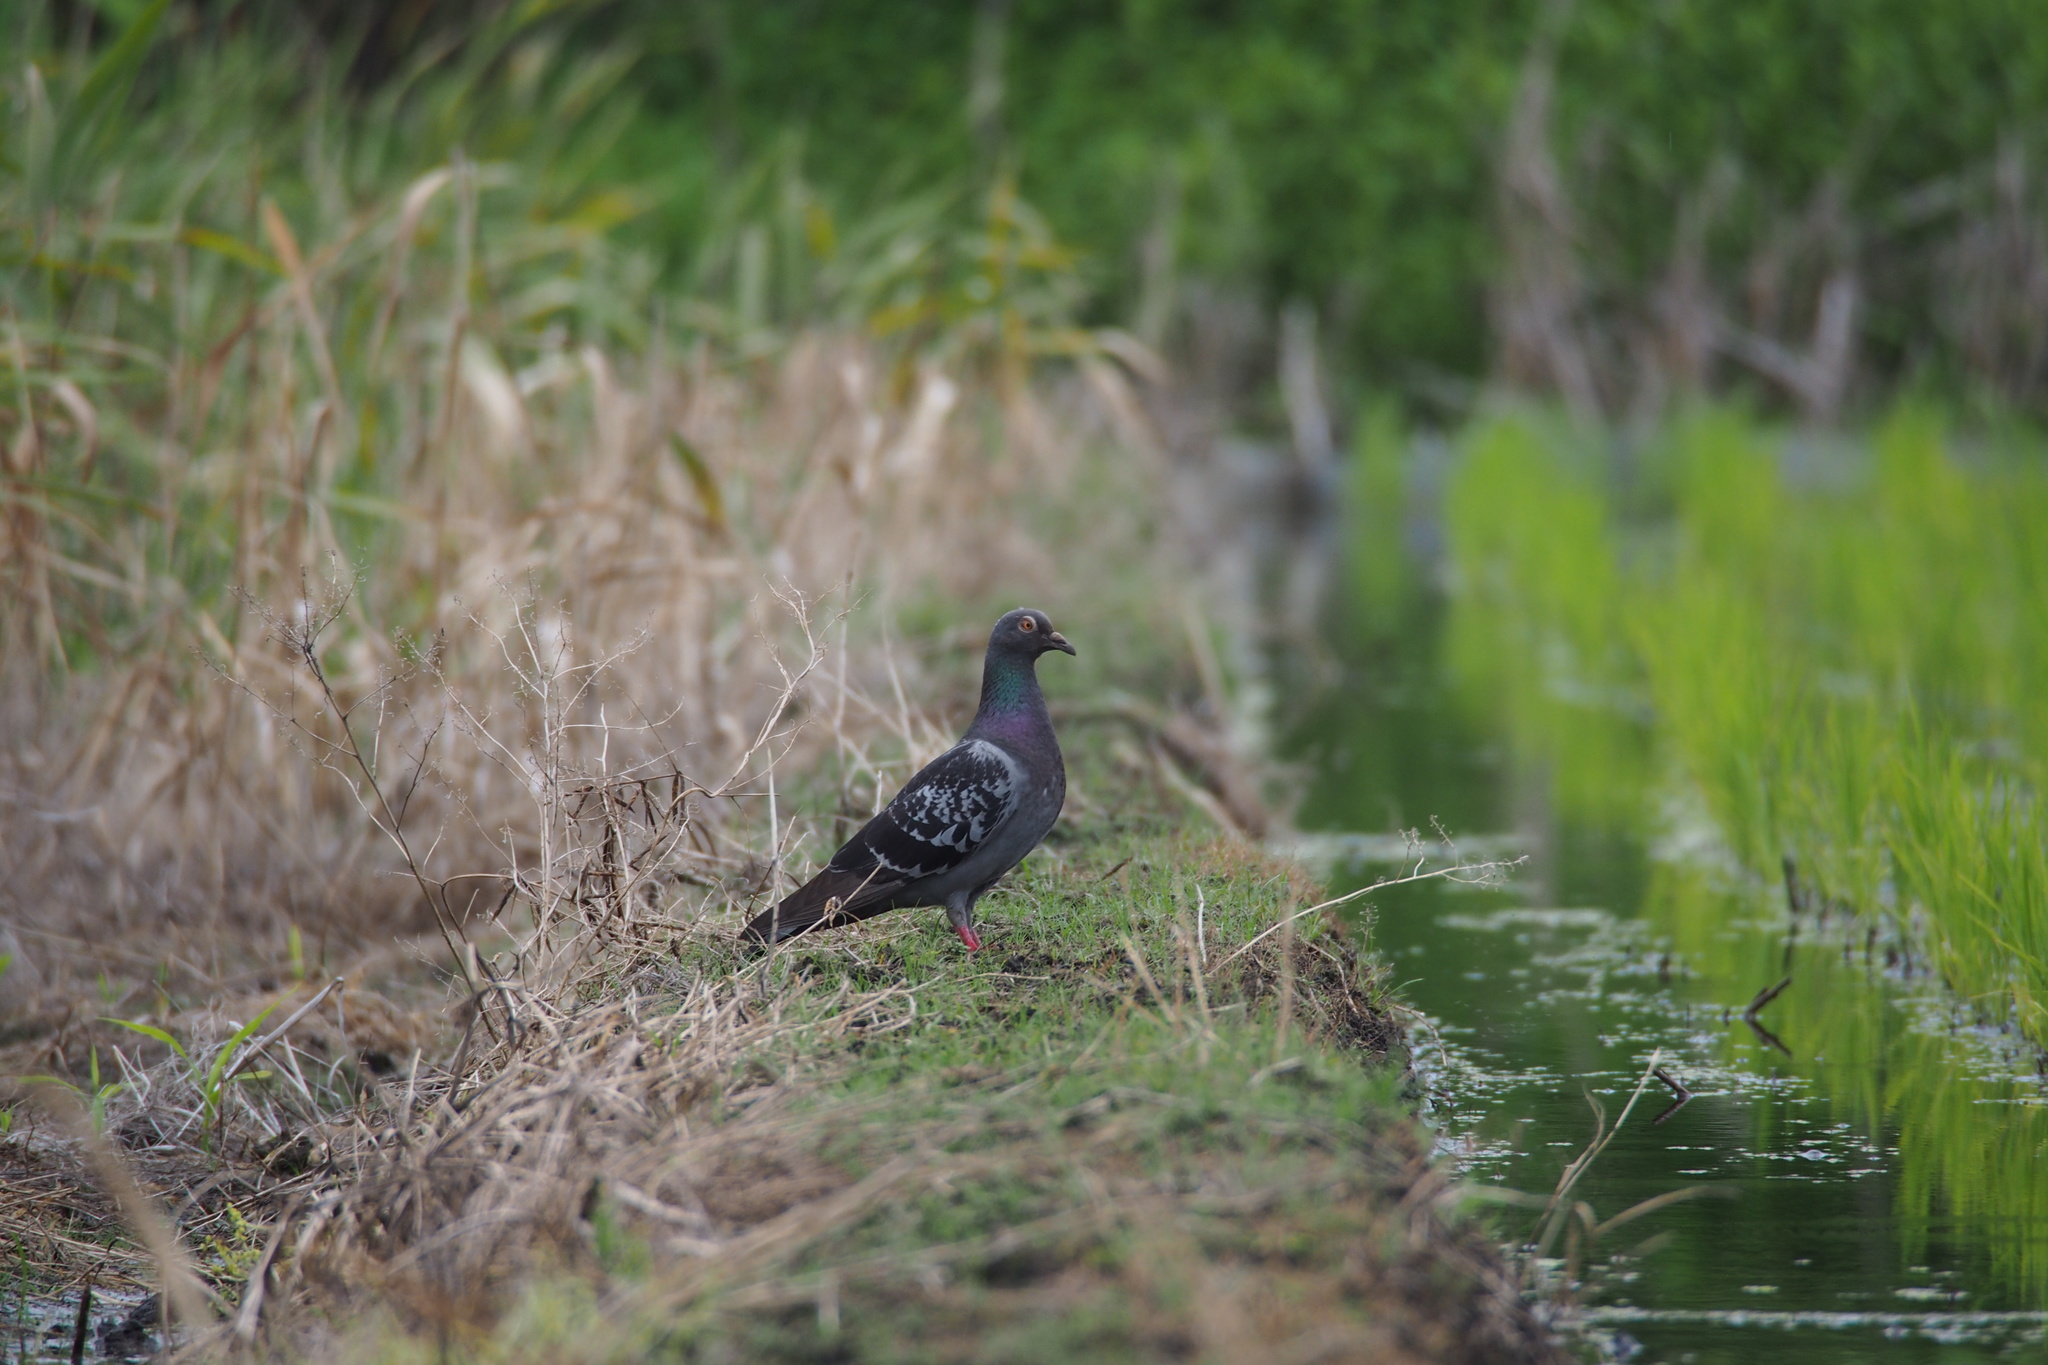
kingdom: Animalia
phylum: Chordata
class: Aves
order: Columbiformes
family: Columbidae
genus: Columba
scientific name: Columba livia
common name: Rock pigeon
